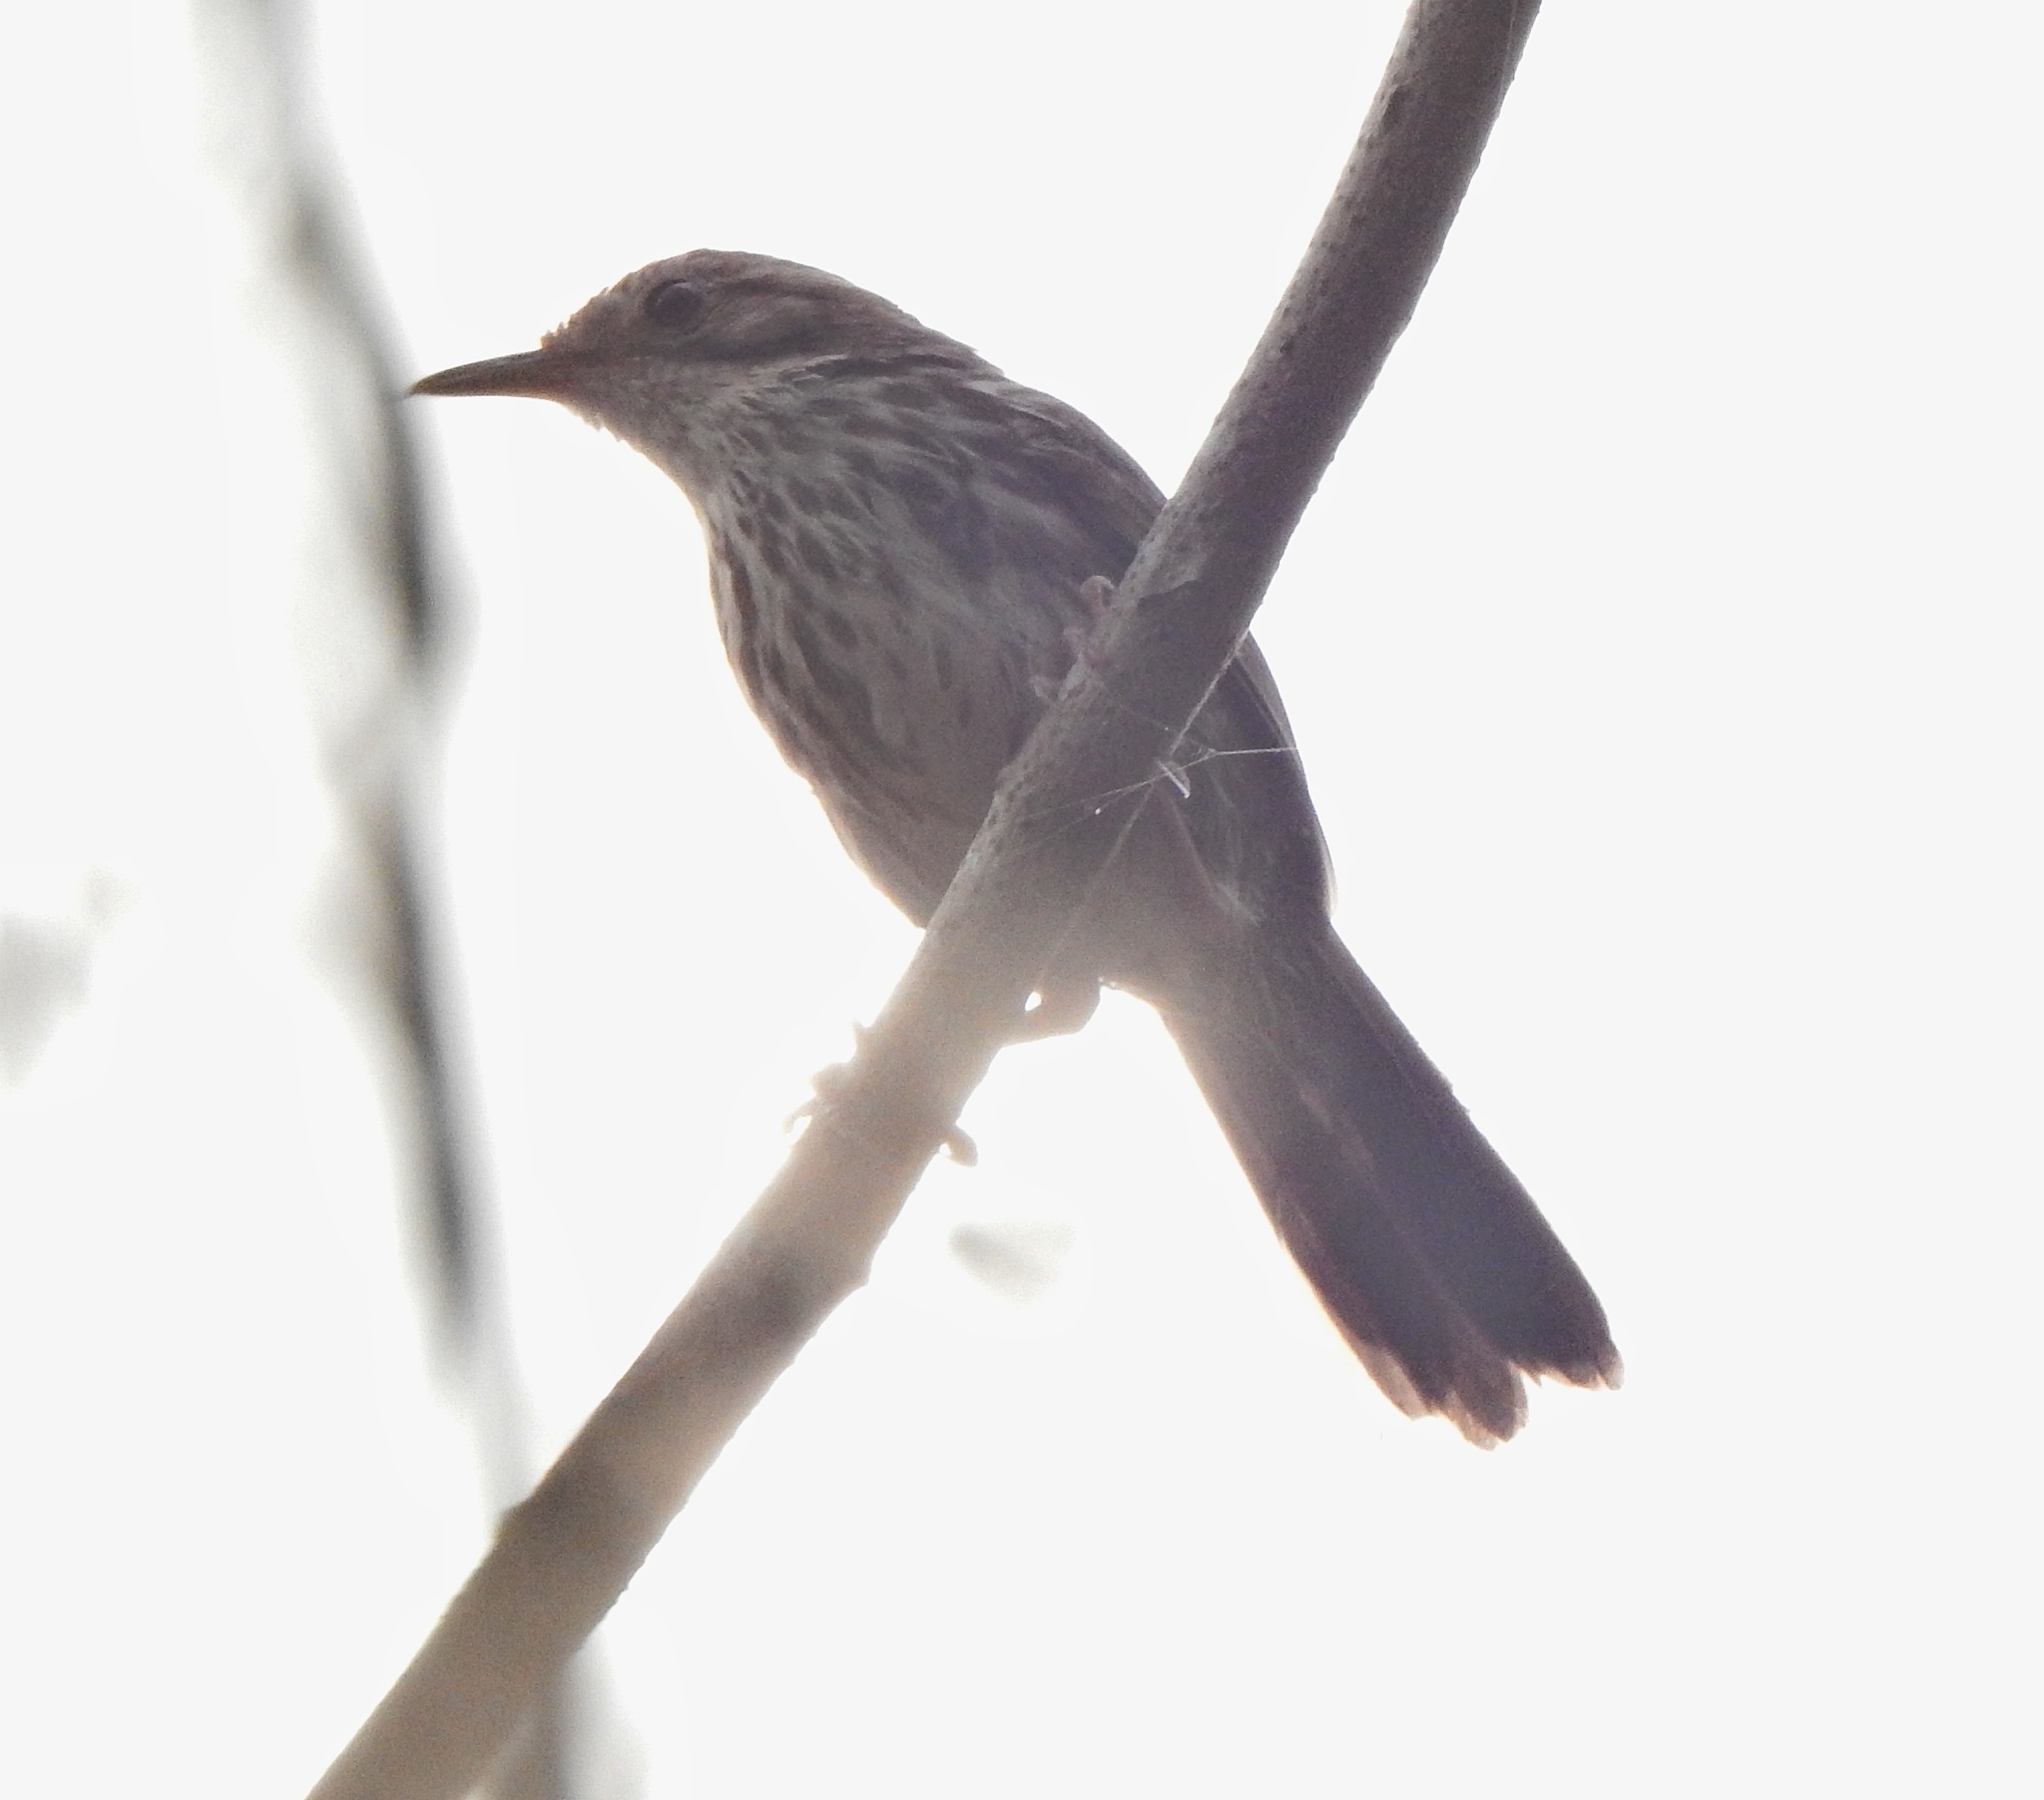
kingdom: Animalia
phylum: Chordata
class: Aves
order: Passeriformes
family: Pellorneidae
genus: Pellorneum
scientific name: Pellorneum ruficeps
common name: Puff-throated babbler
